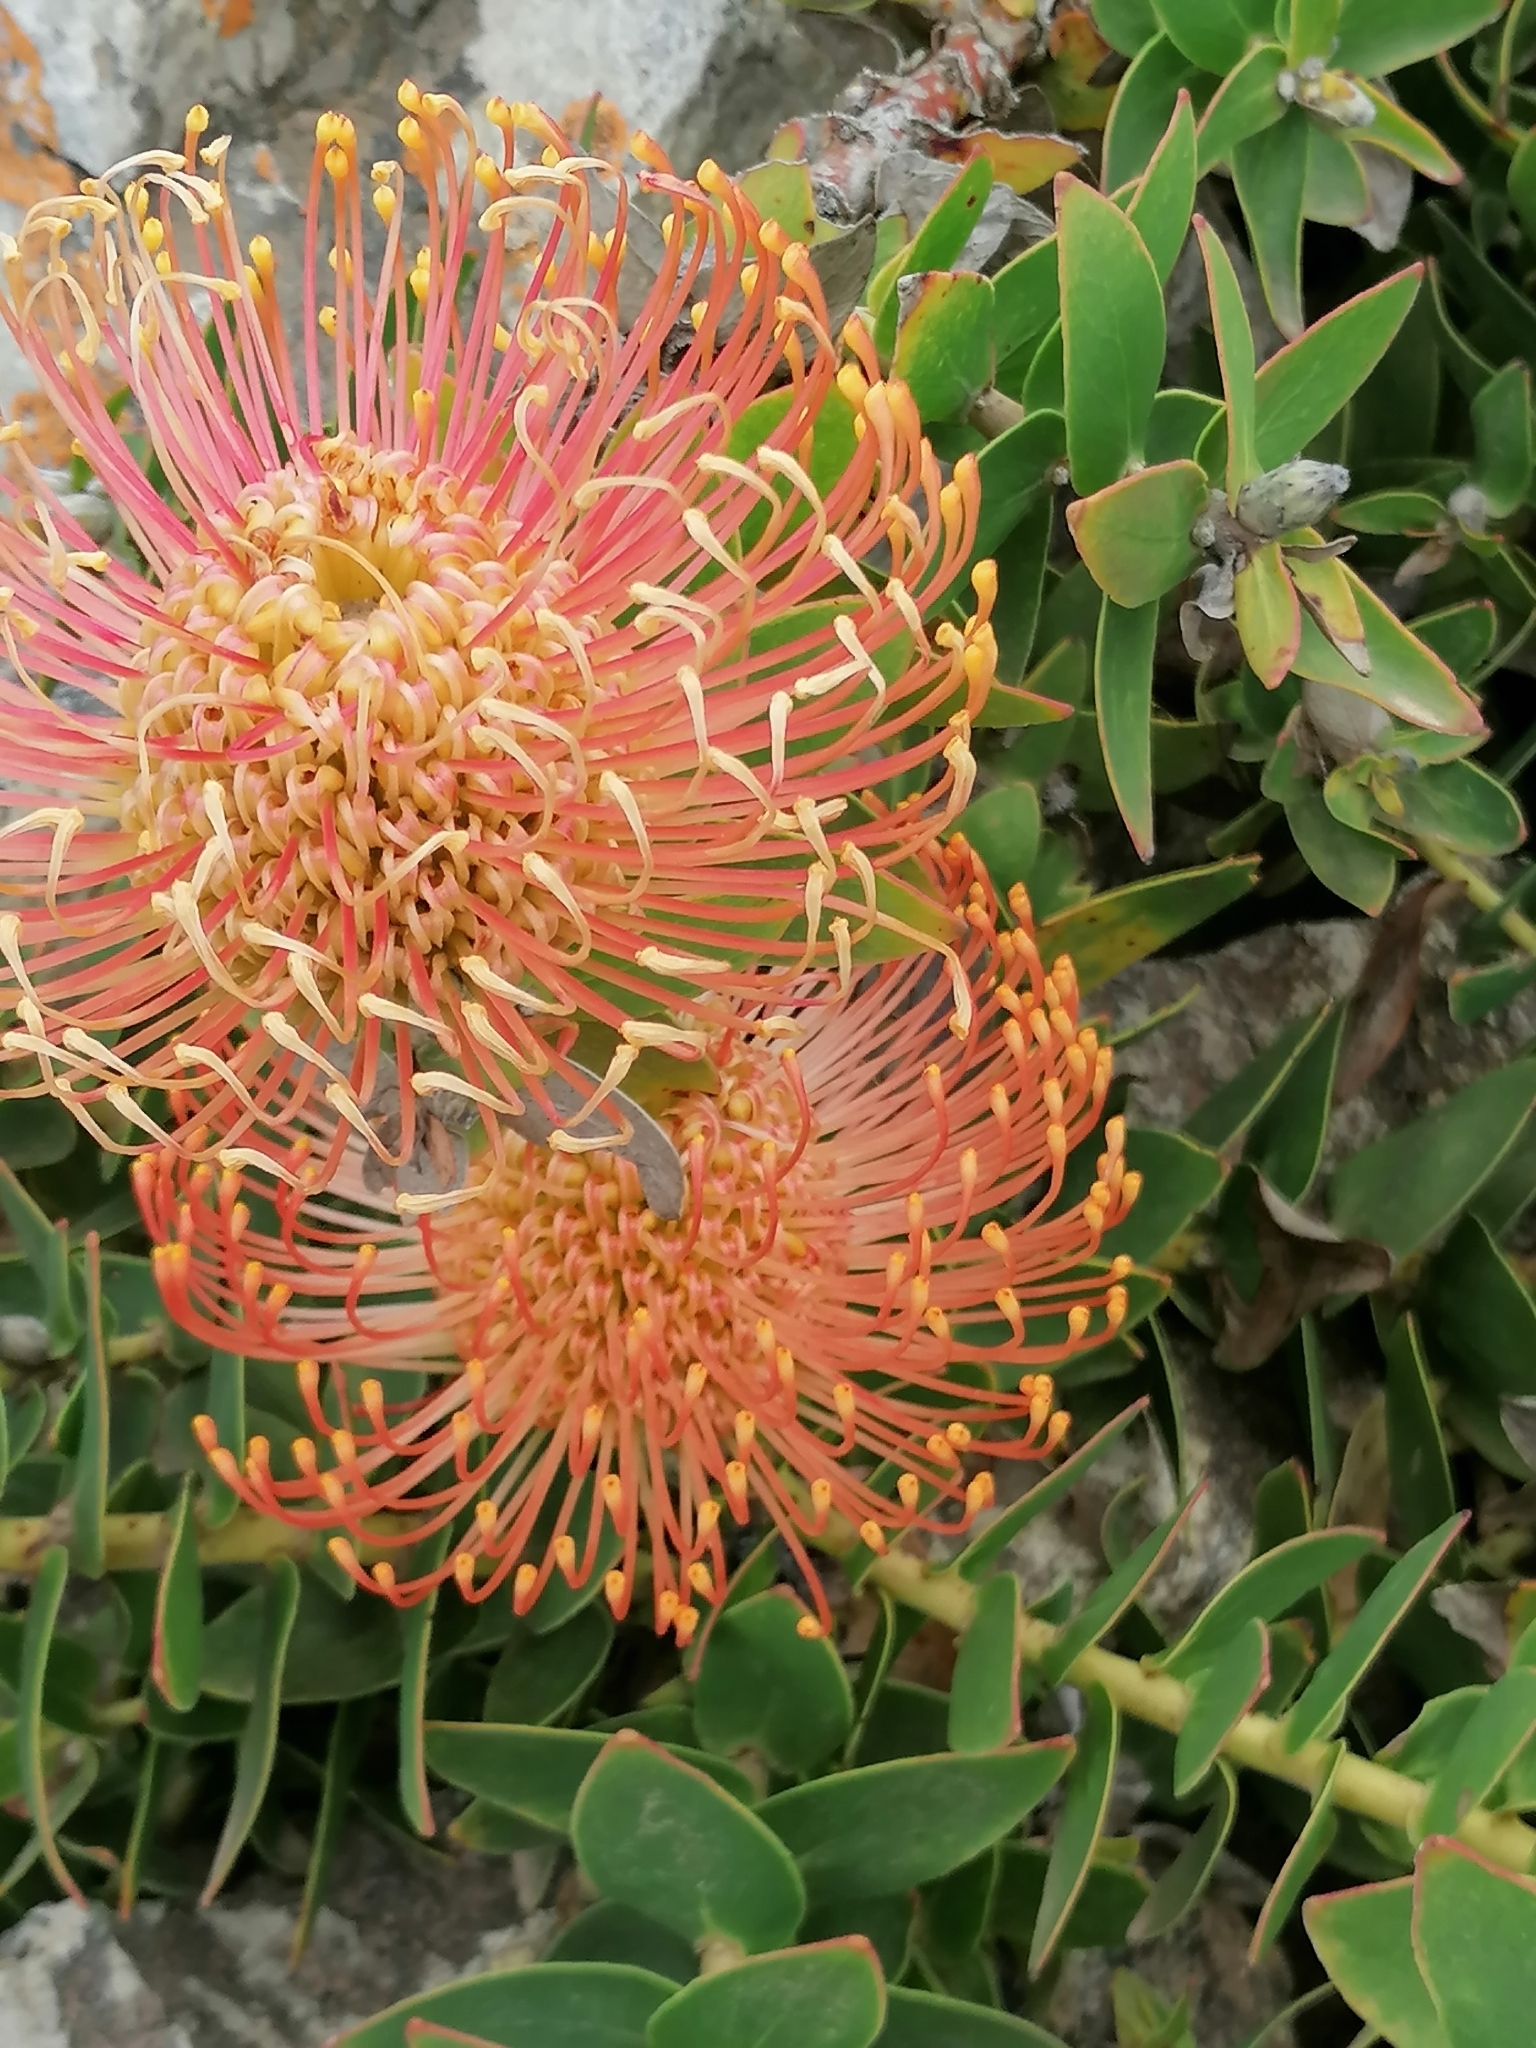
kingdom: Plantae
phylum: Tracheophyta
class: Magnoliopsida
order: Proteales
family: Proteaceae
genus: Leucospermum
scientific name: Leucospermum cordifolium
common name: Red pincushion-protea
